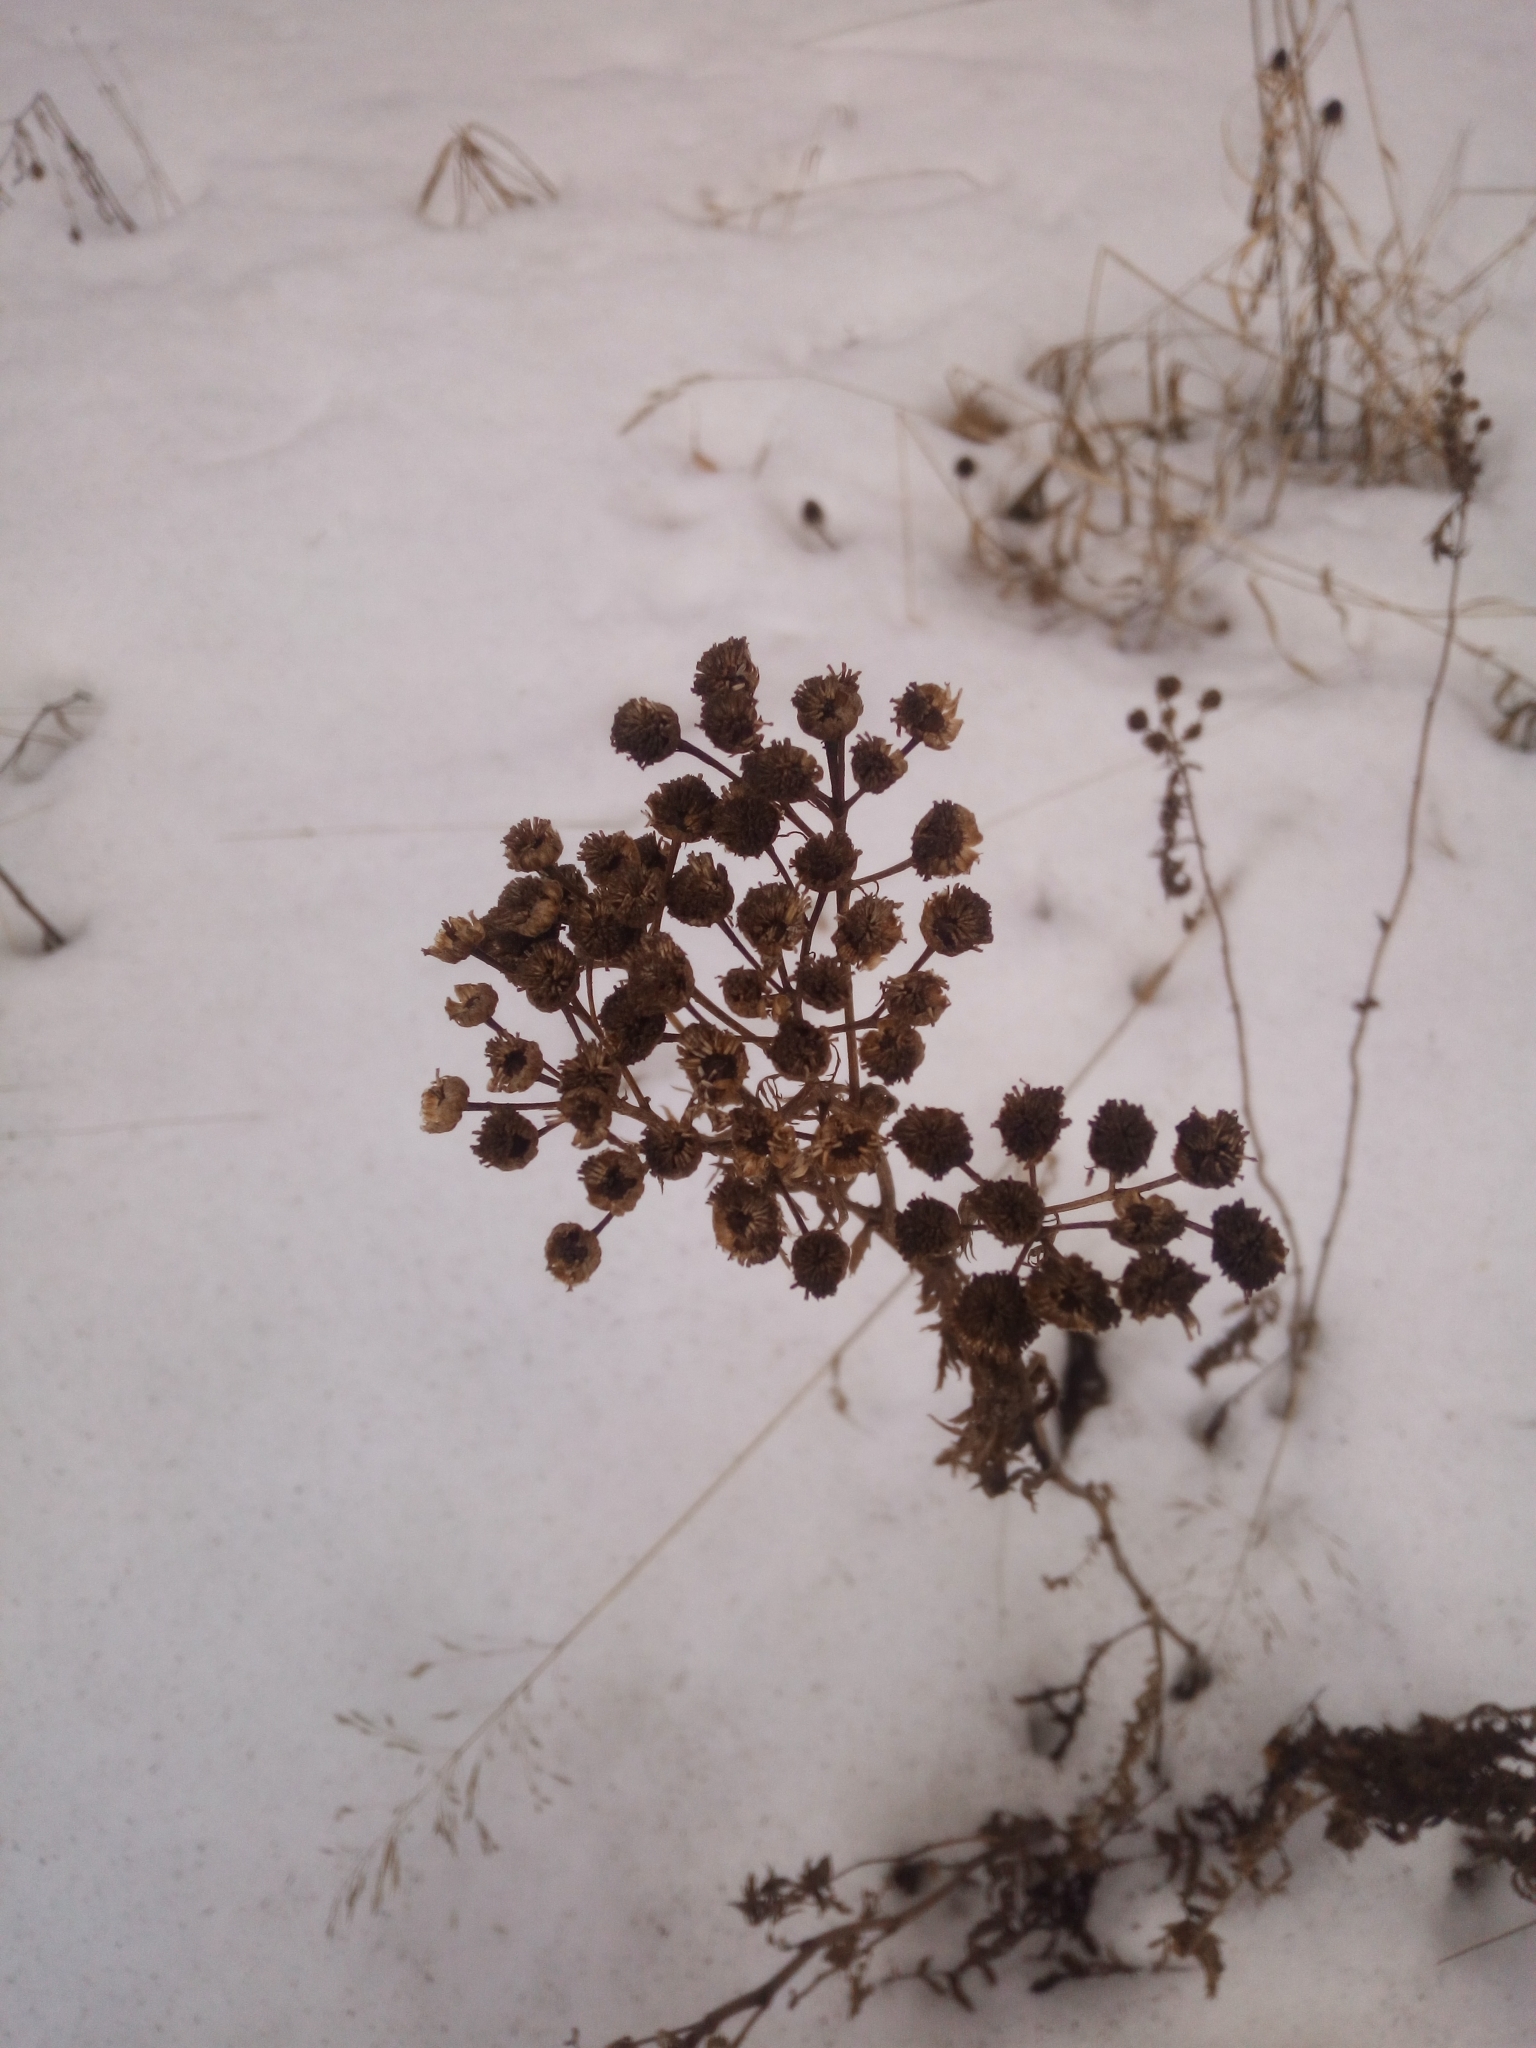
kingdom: Plantae
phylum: Tracheophyta
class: Magnoliopsida
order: Asterales
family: Asteraceae
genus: Tanacetum
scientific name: Tanacetum vulgare
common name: Common tansy
